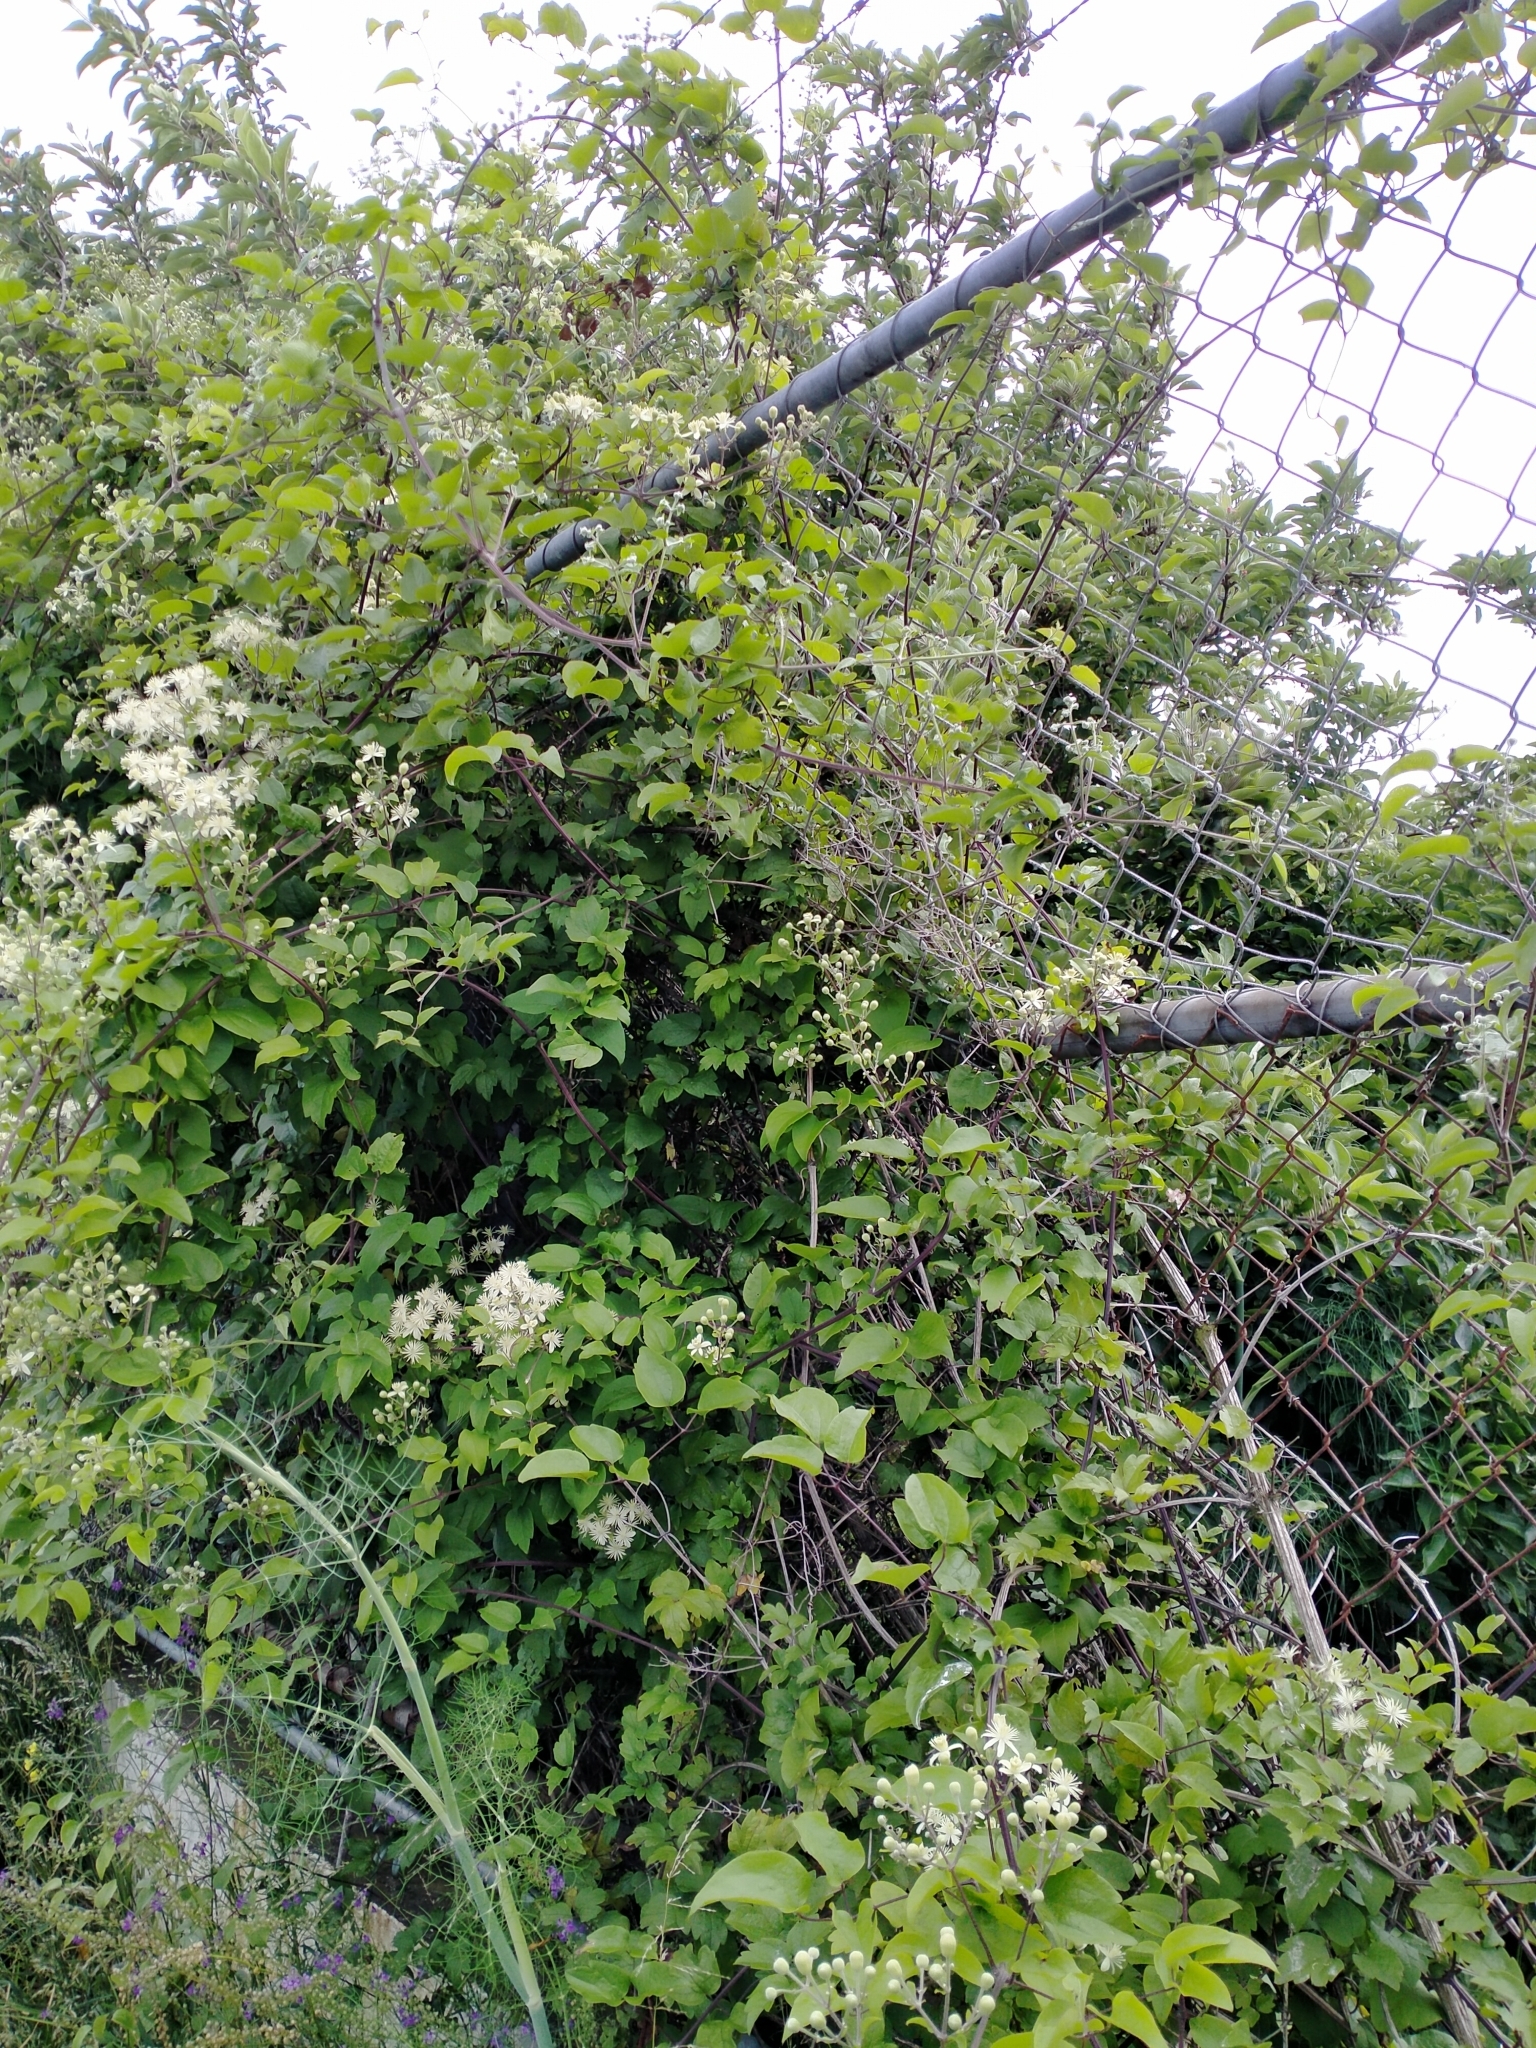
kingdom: Plantae
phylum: Tracheophyta
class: Magnoliopsida
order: Ranunculales
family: Ranunculaceae
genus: Clematis
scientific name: Clematis vitalba
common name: Evergreen clematis
